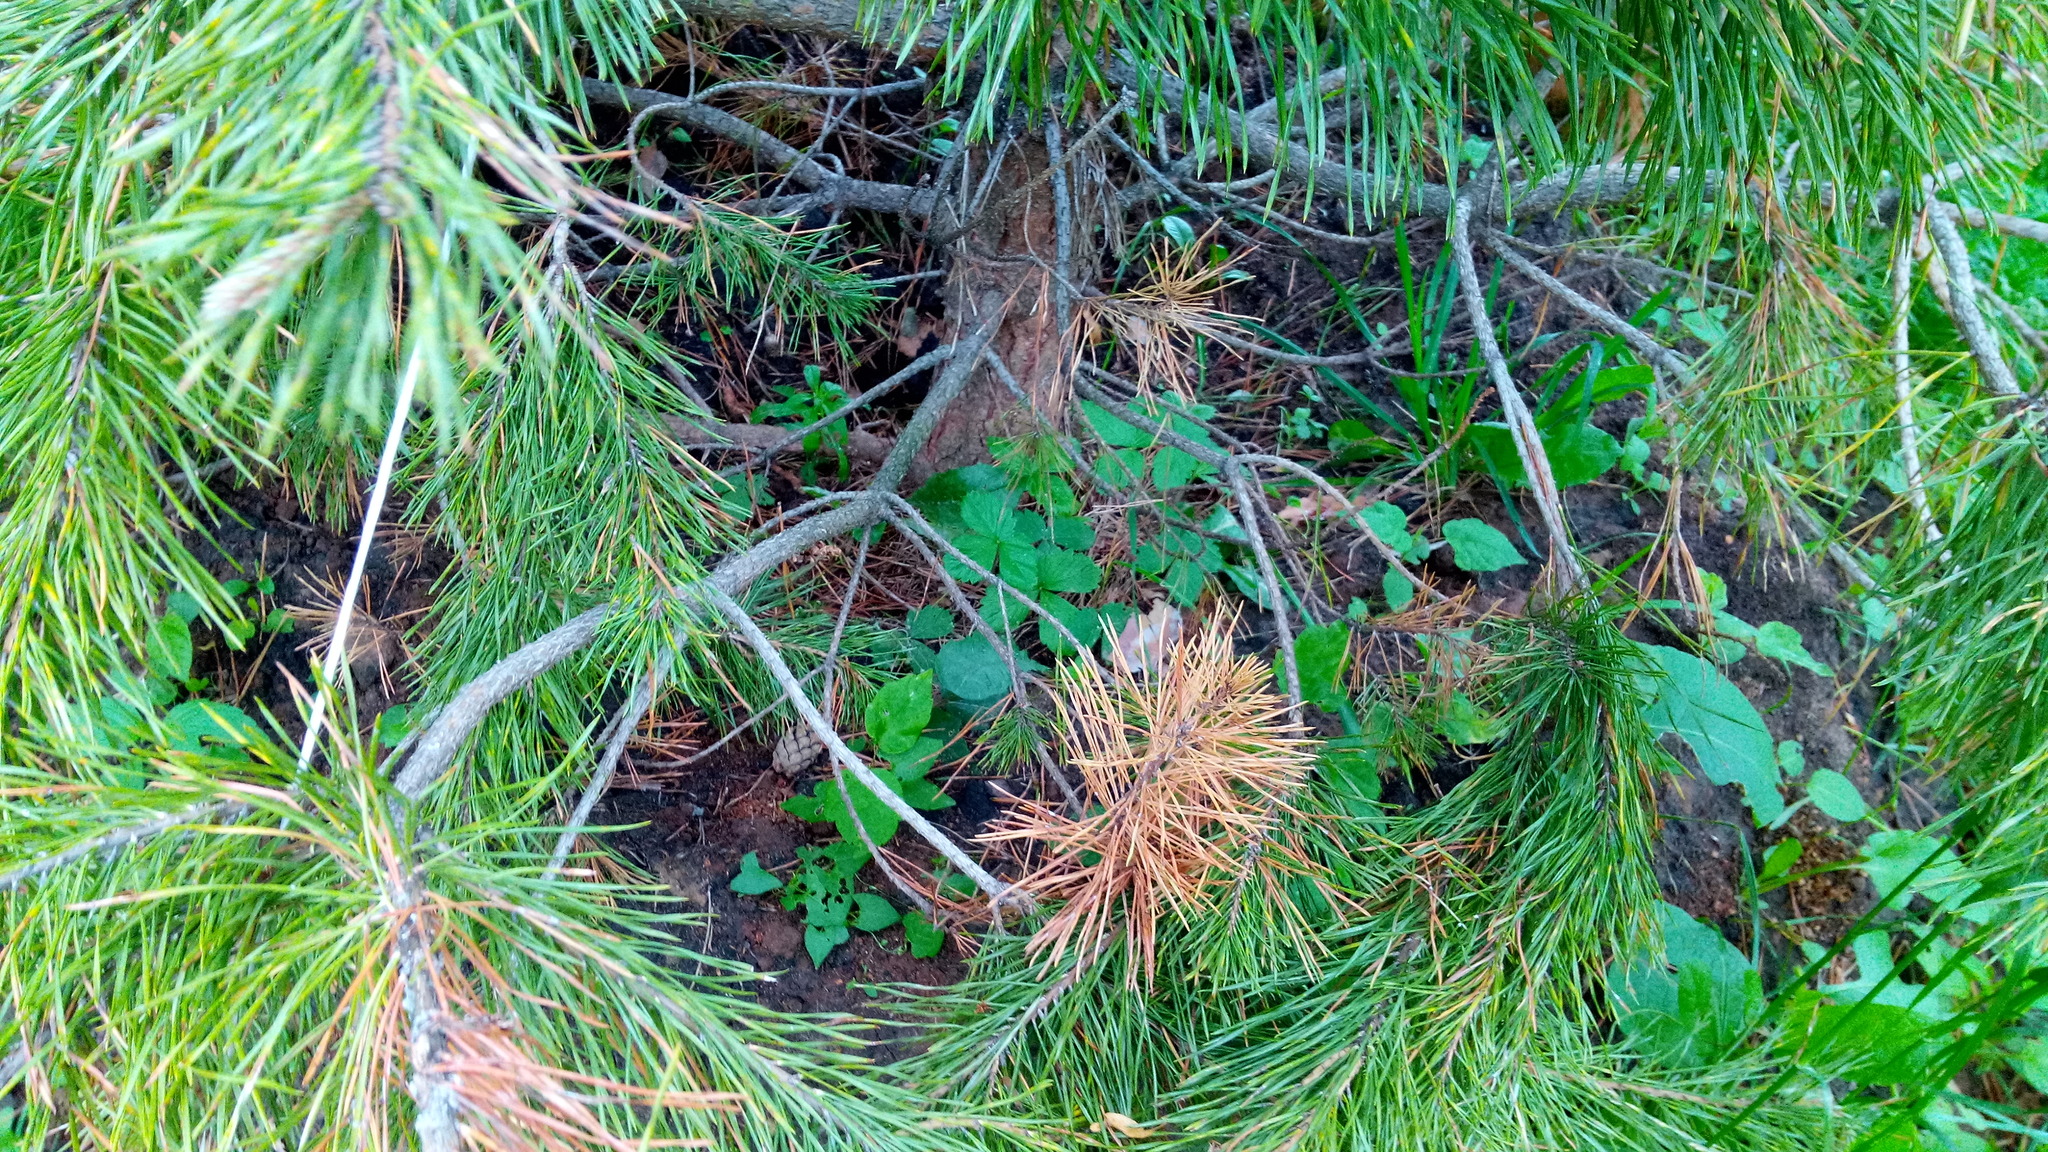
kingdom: Plantae
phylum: Tracheophyta
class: Magnoliopsida
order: Rosales
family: Rosaceae
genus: Fragaria
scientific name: Fragaria vesca
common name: Wild strawberry
